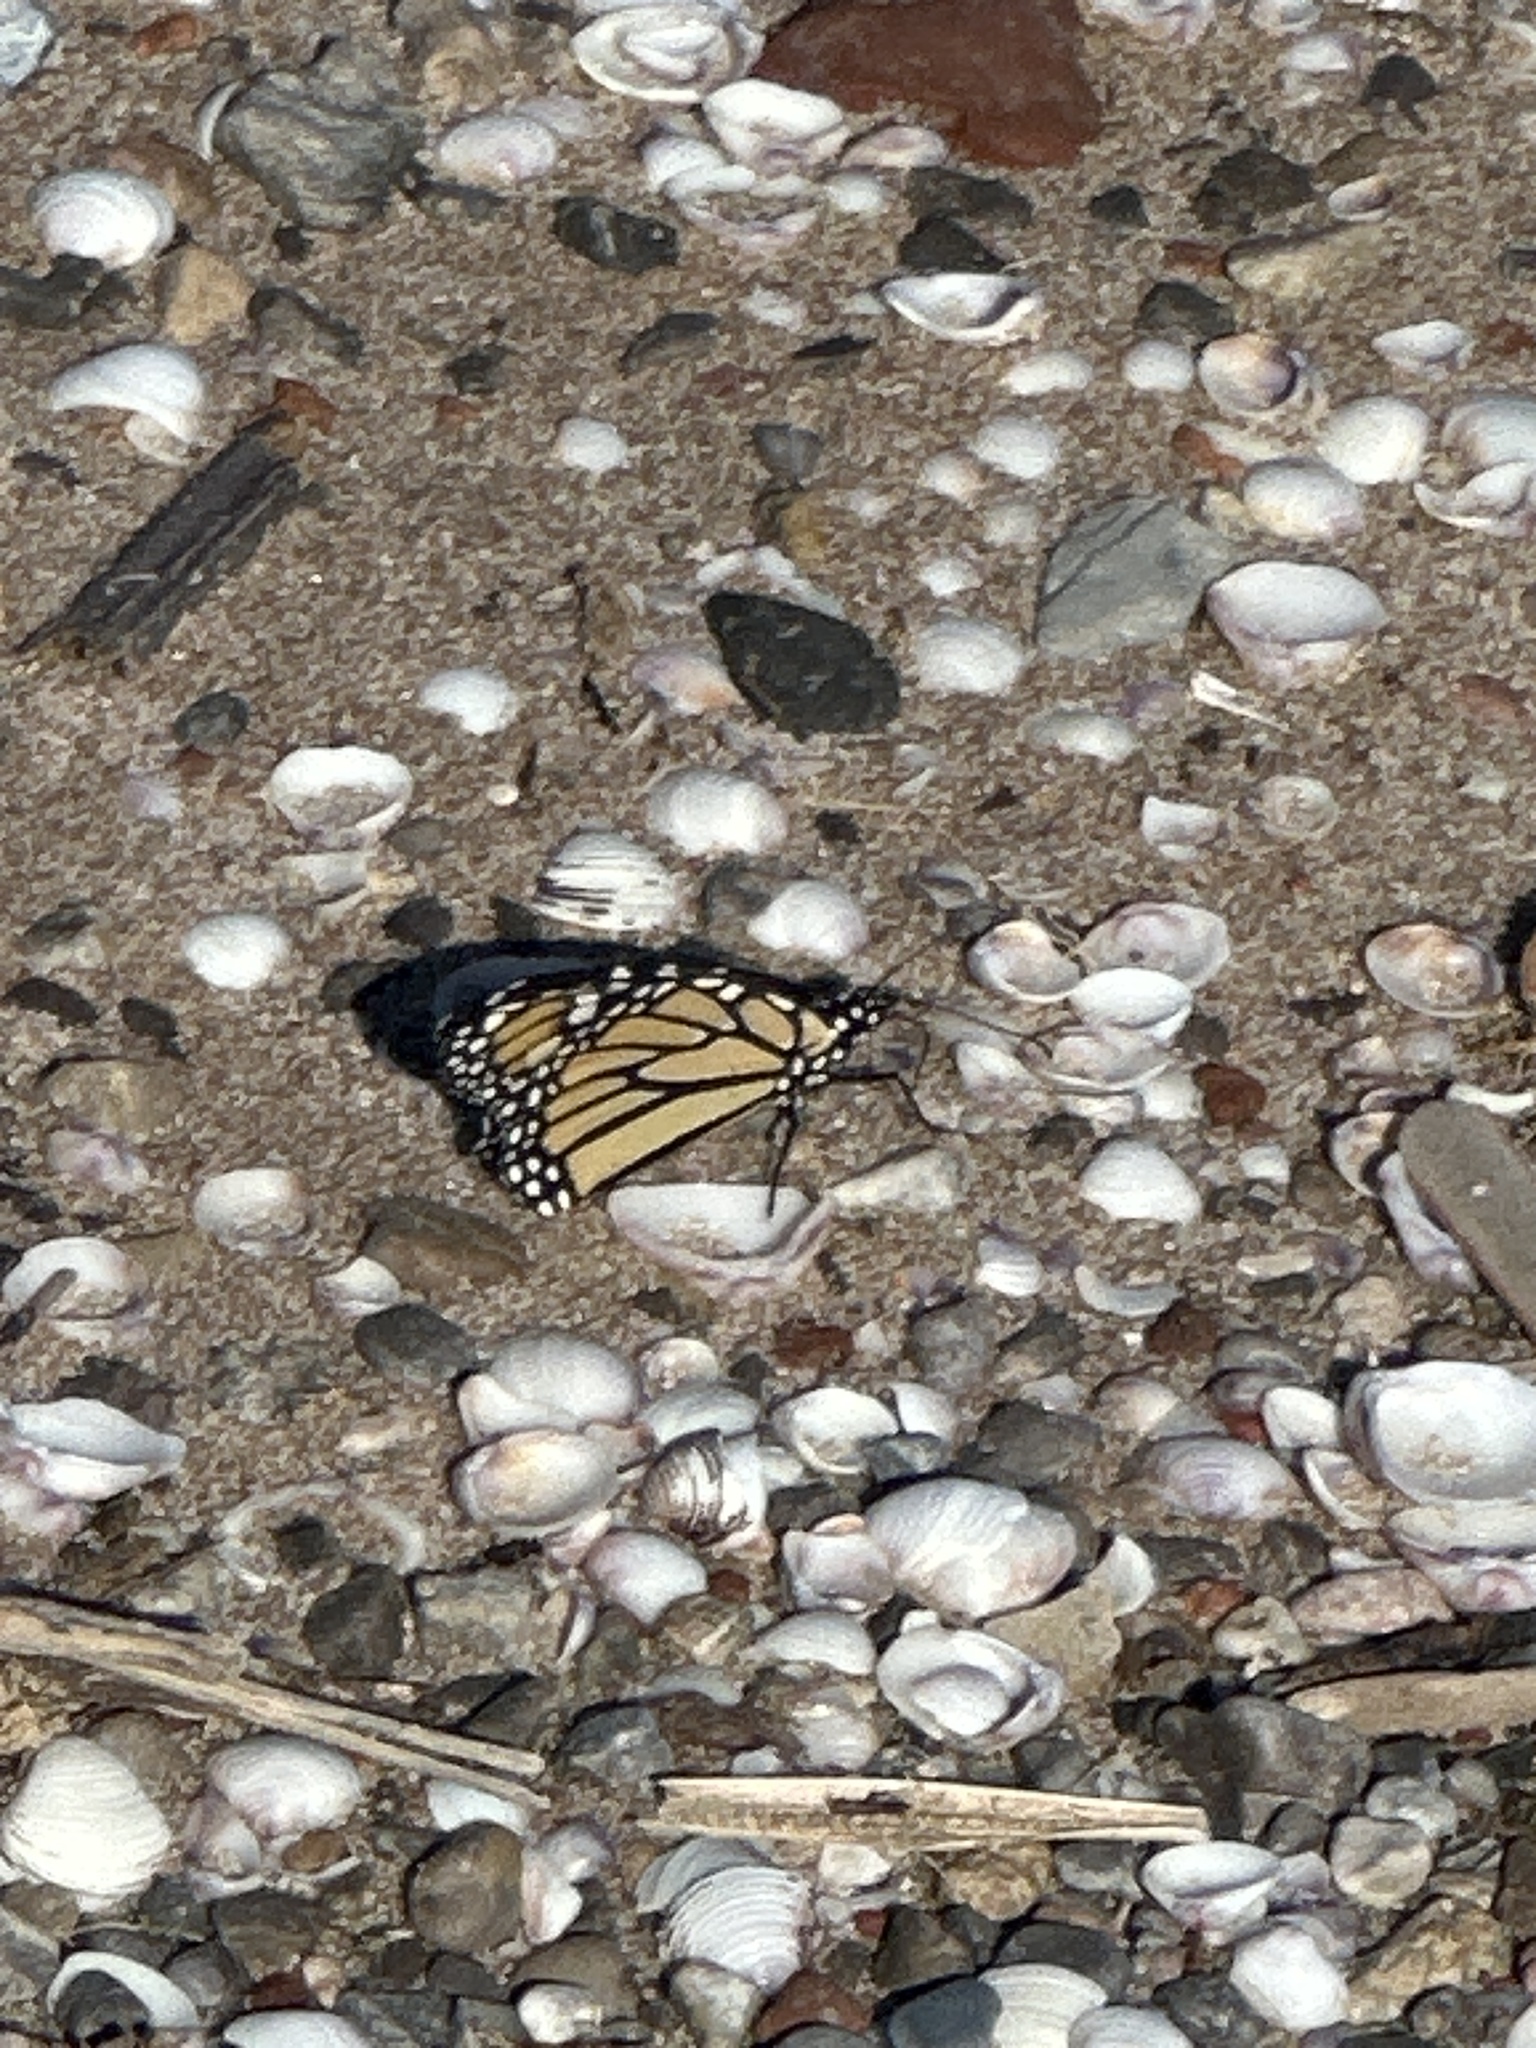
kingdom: Animalia
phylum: Arthropoda
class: Insecta
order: Lepidoptera
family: Nymphalidae
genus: Danaus
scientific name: Danaus plexippus
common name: Monarch
